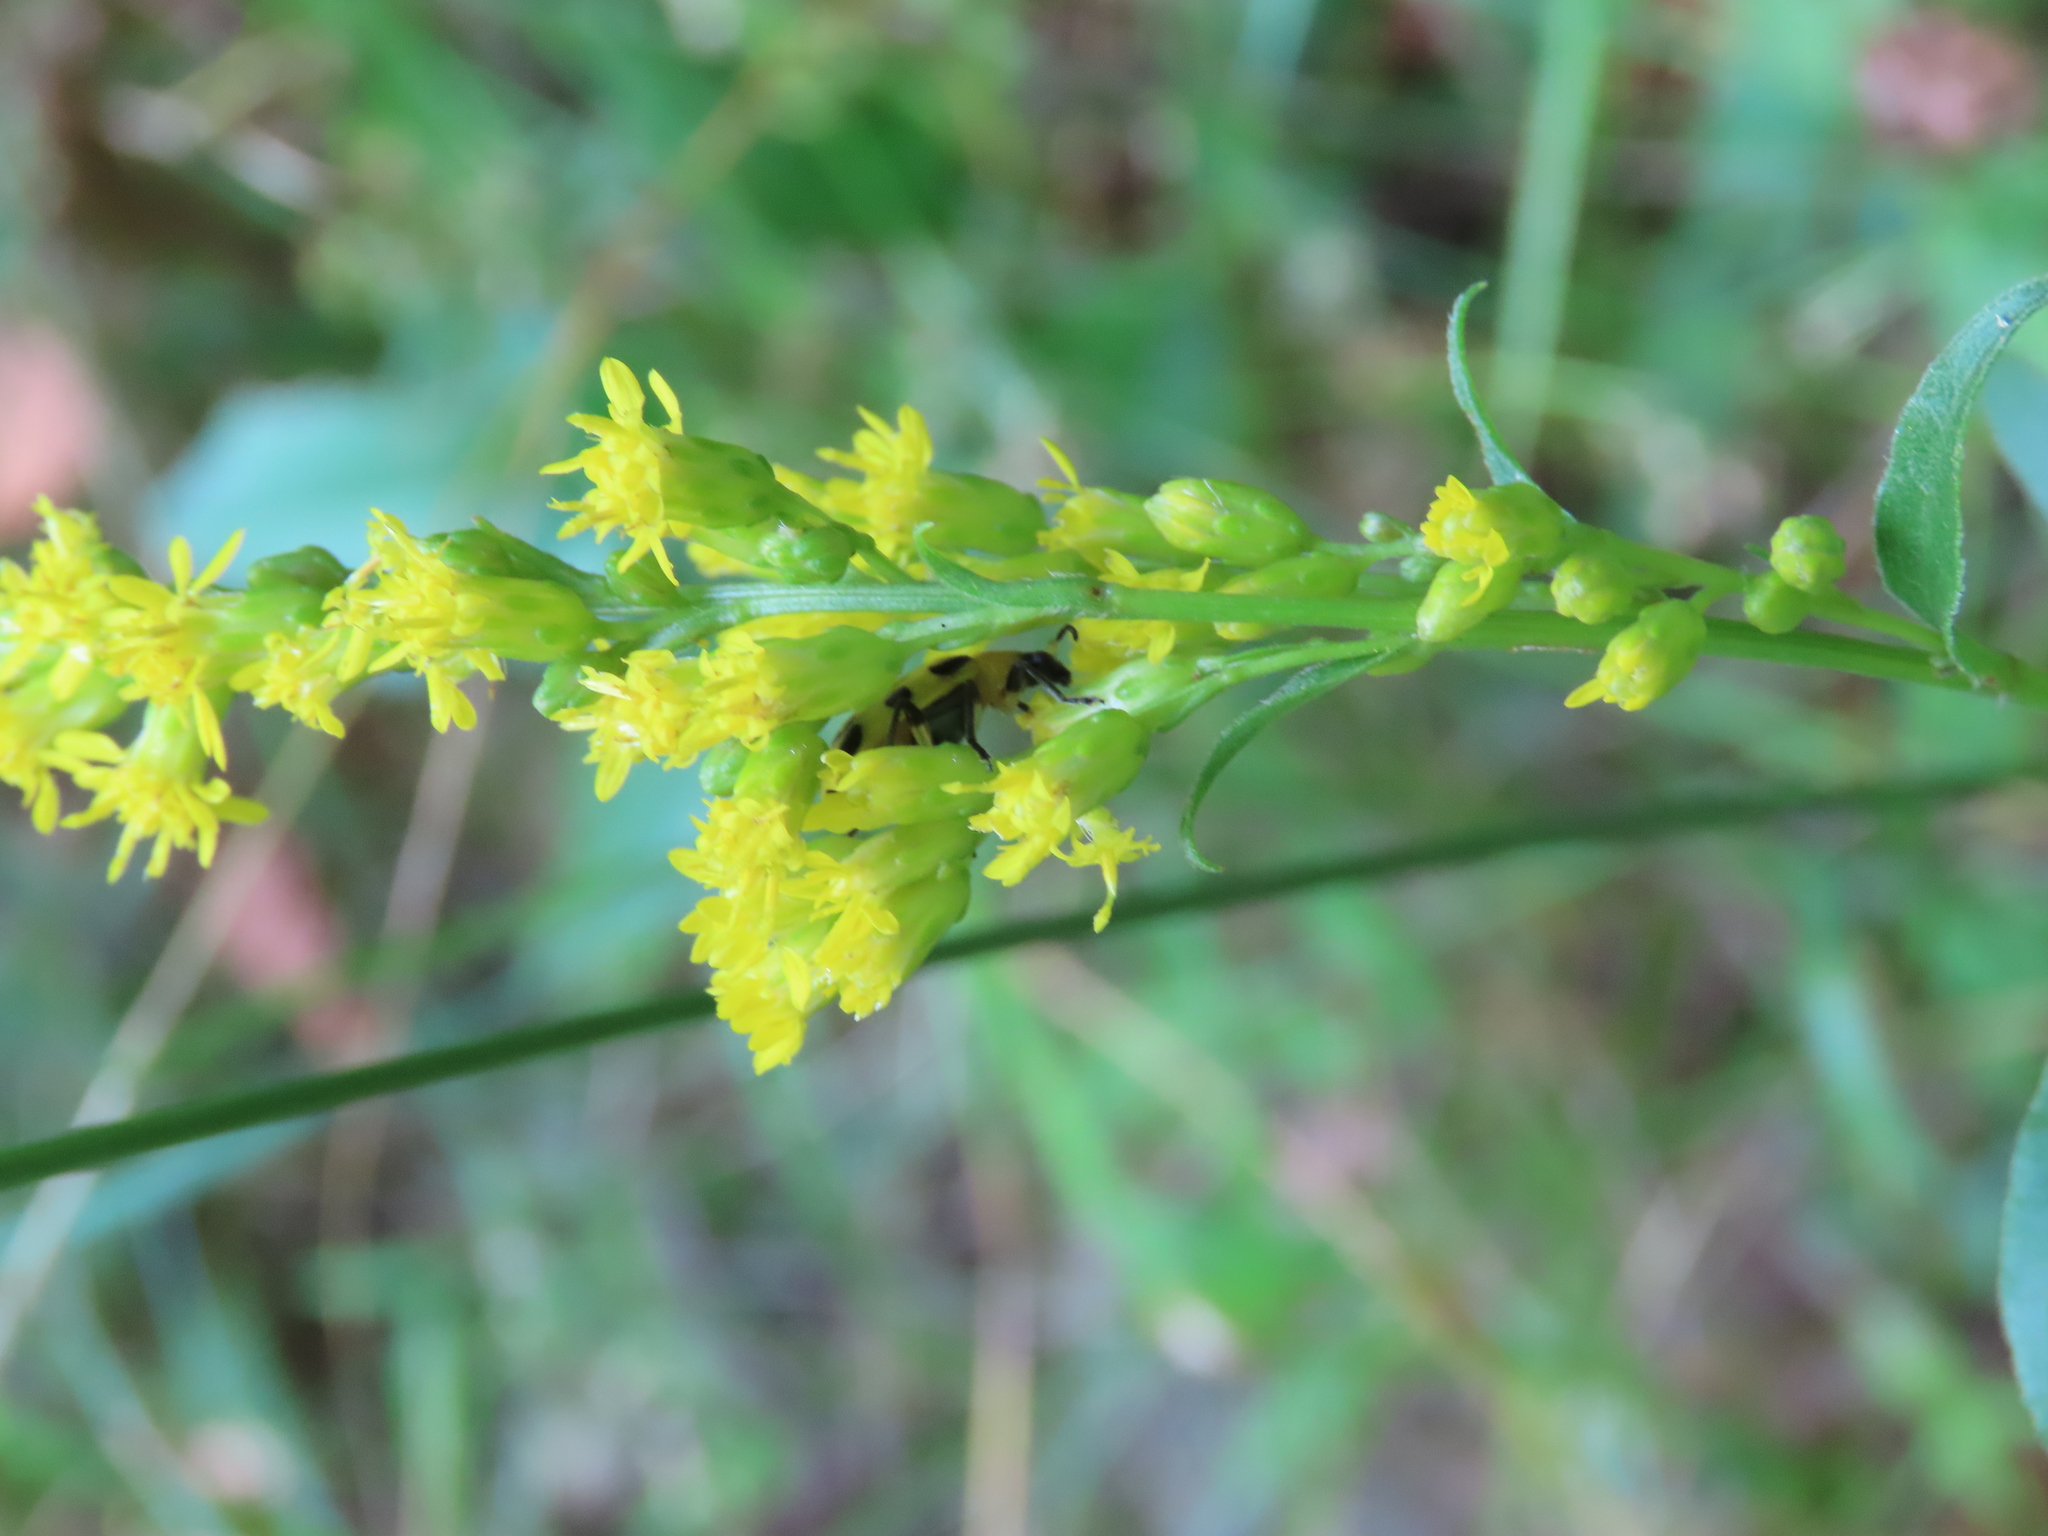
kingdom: Animalia
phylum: Arthropoda
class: Insecta
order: Coleoptera
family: Chrysomelidae
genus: Diabrotica
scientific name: Diabrotica undecimpunctata
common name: Spotted cucumber beetle
